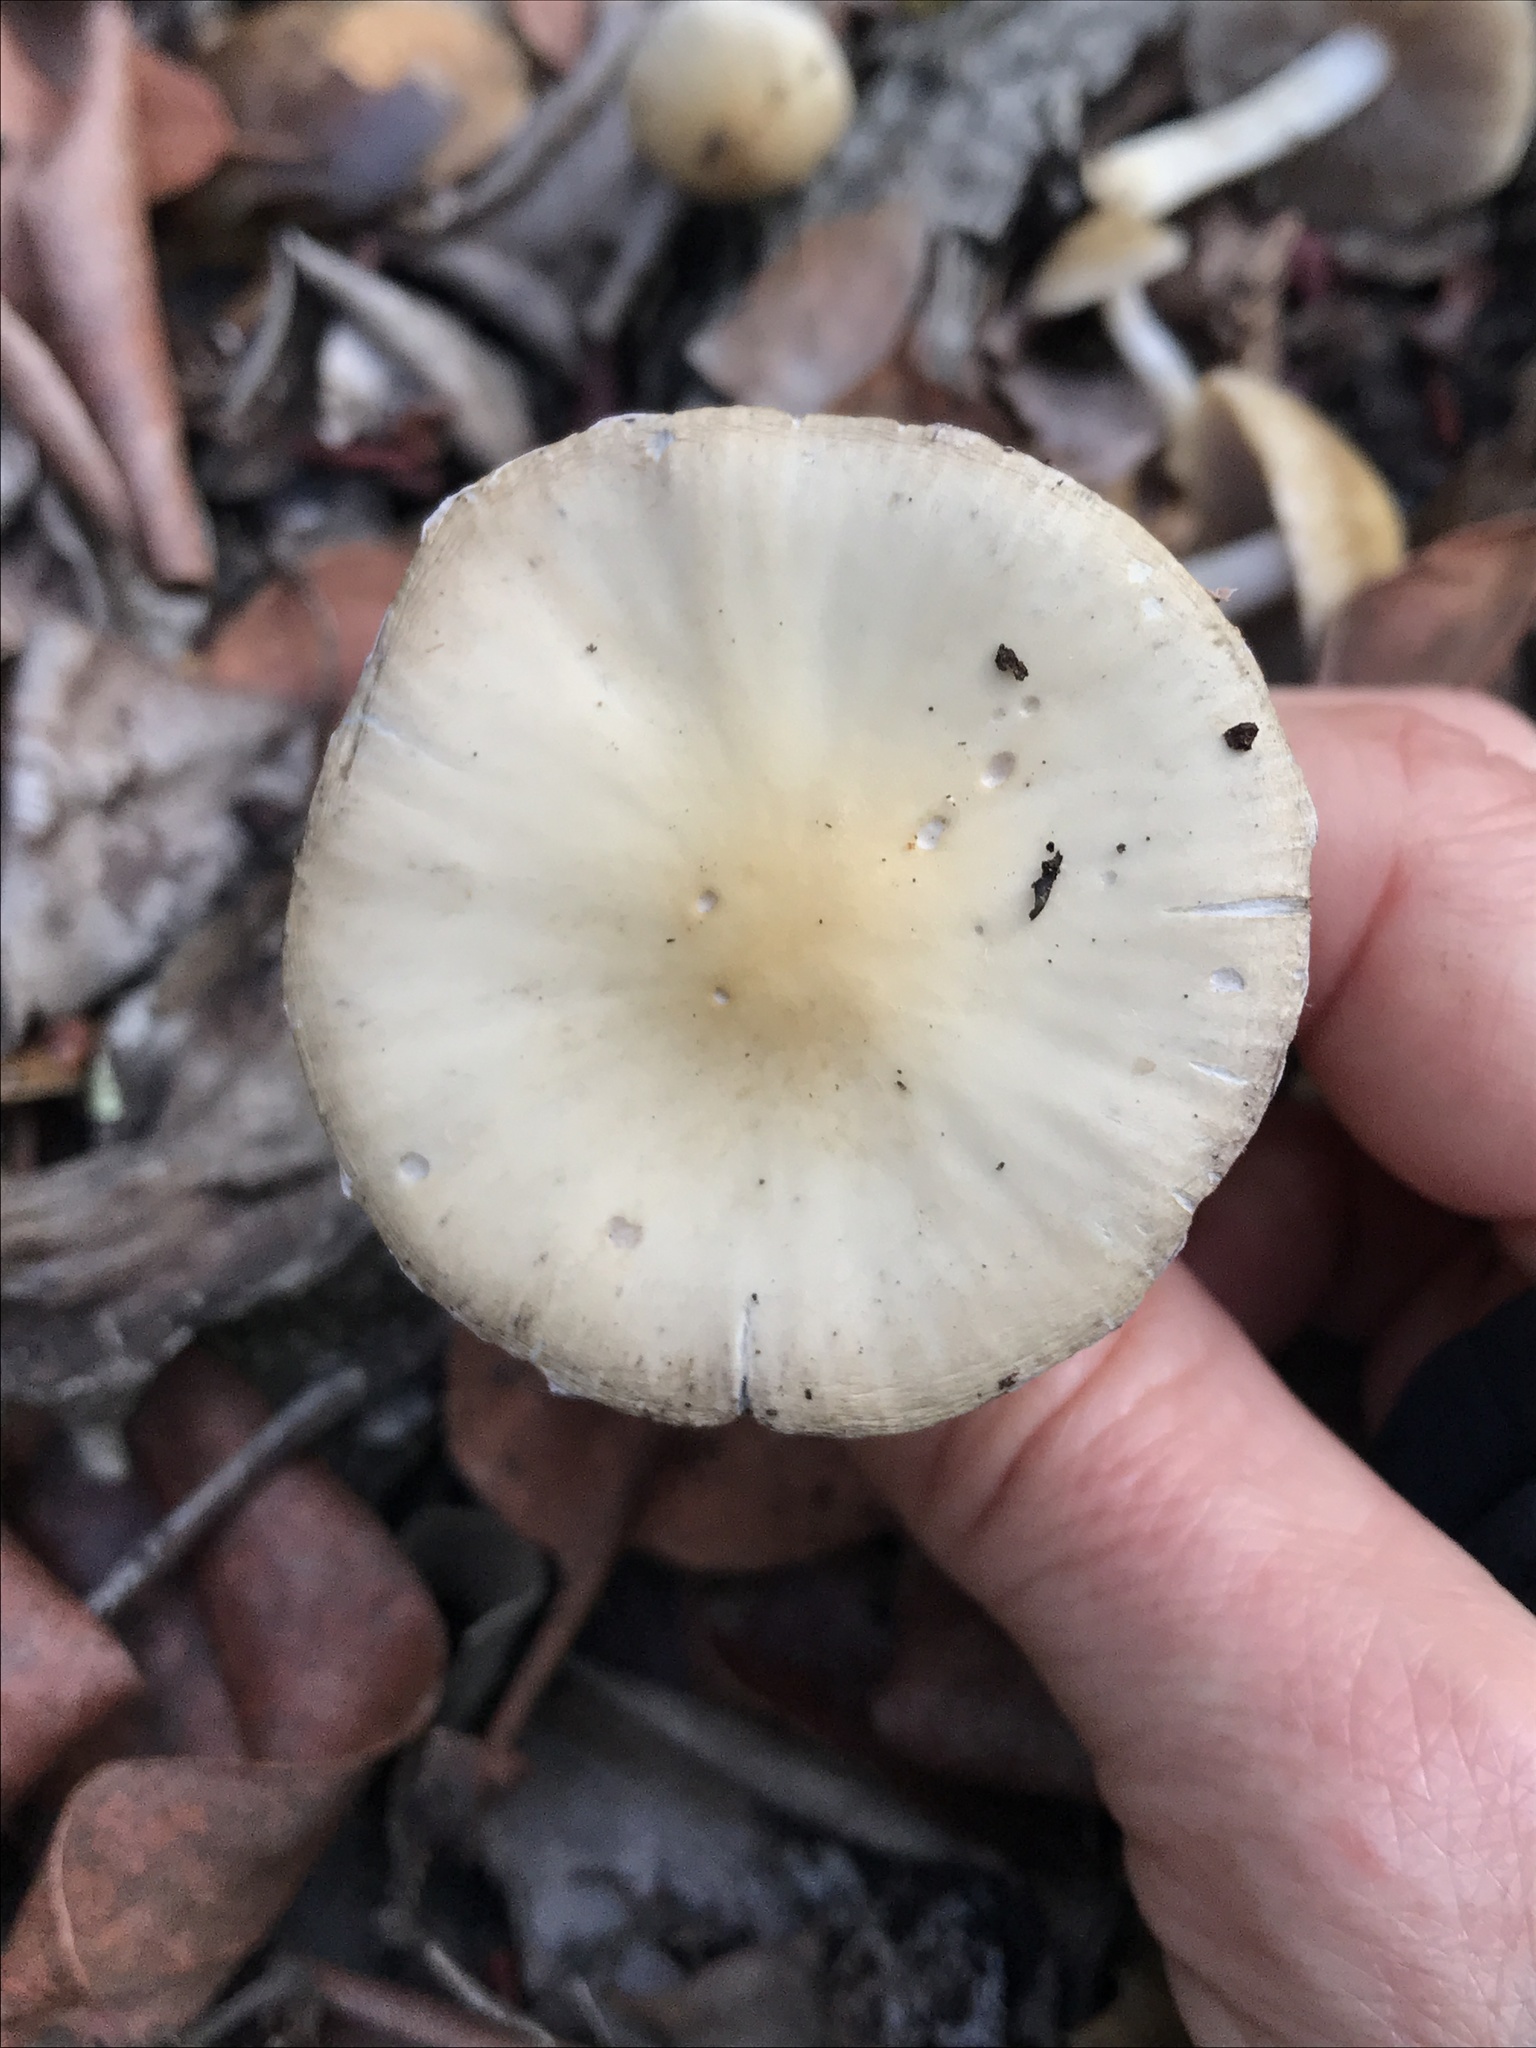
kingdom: Fungi
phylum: Basidiomycota
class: Agaricomycetes
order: Agaricales
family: Psathyrellaceae
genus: Candolleomyces
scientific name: Candolleomyces candolleanus
